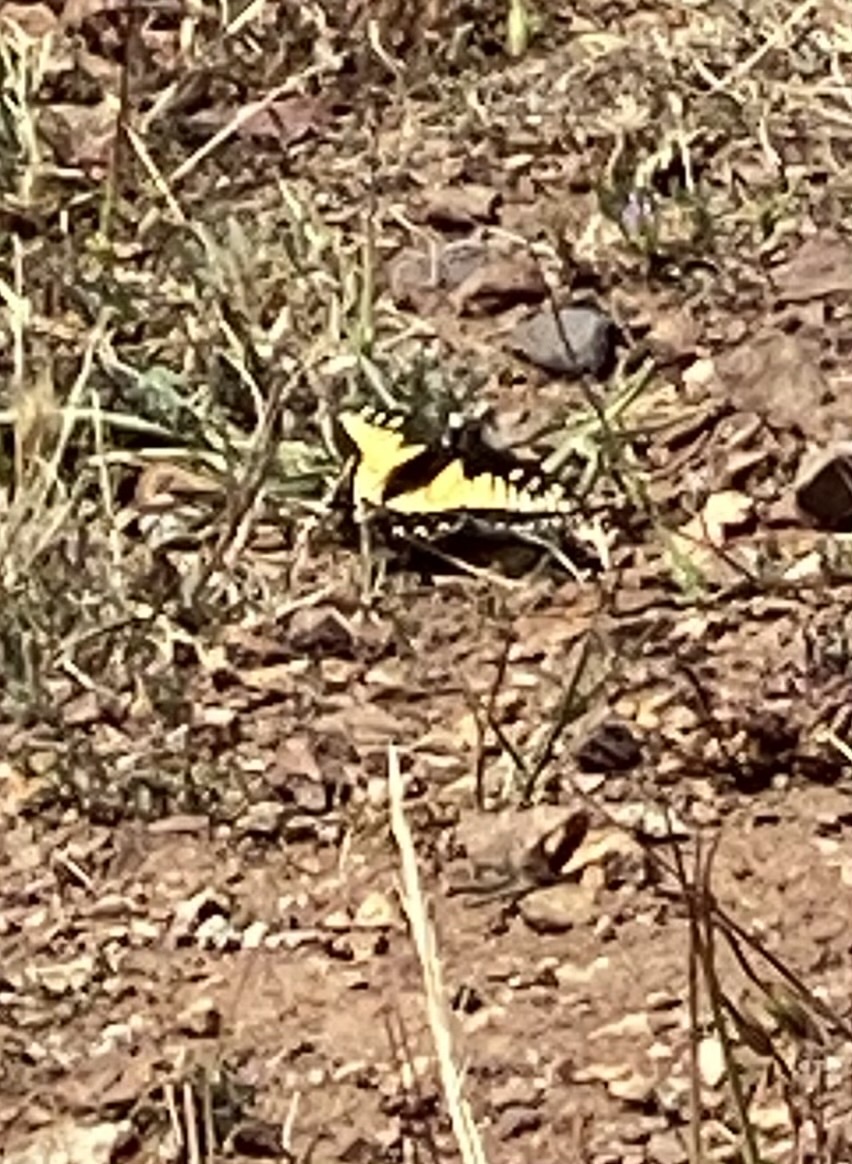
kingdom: Animalia
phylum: Arthropoda
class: Insecta
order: Lepidoptera
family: Papilionidae
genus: Papilio
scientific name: Papilio zelicaon
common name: Anise swallowtail
